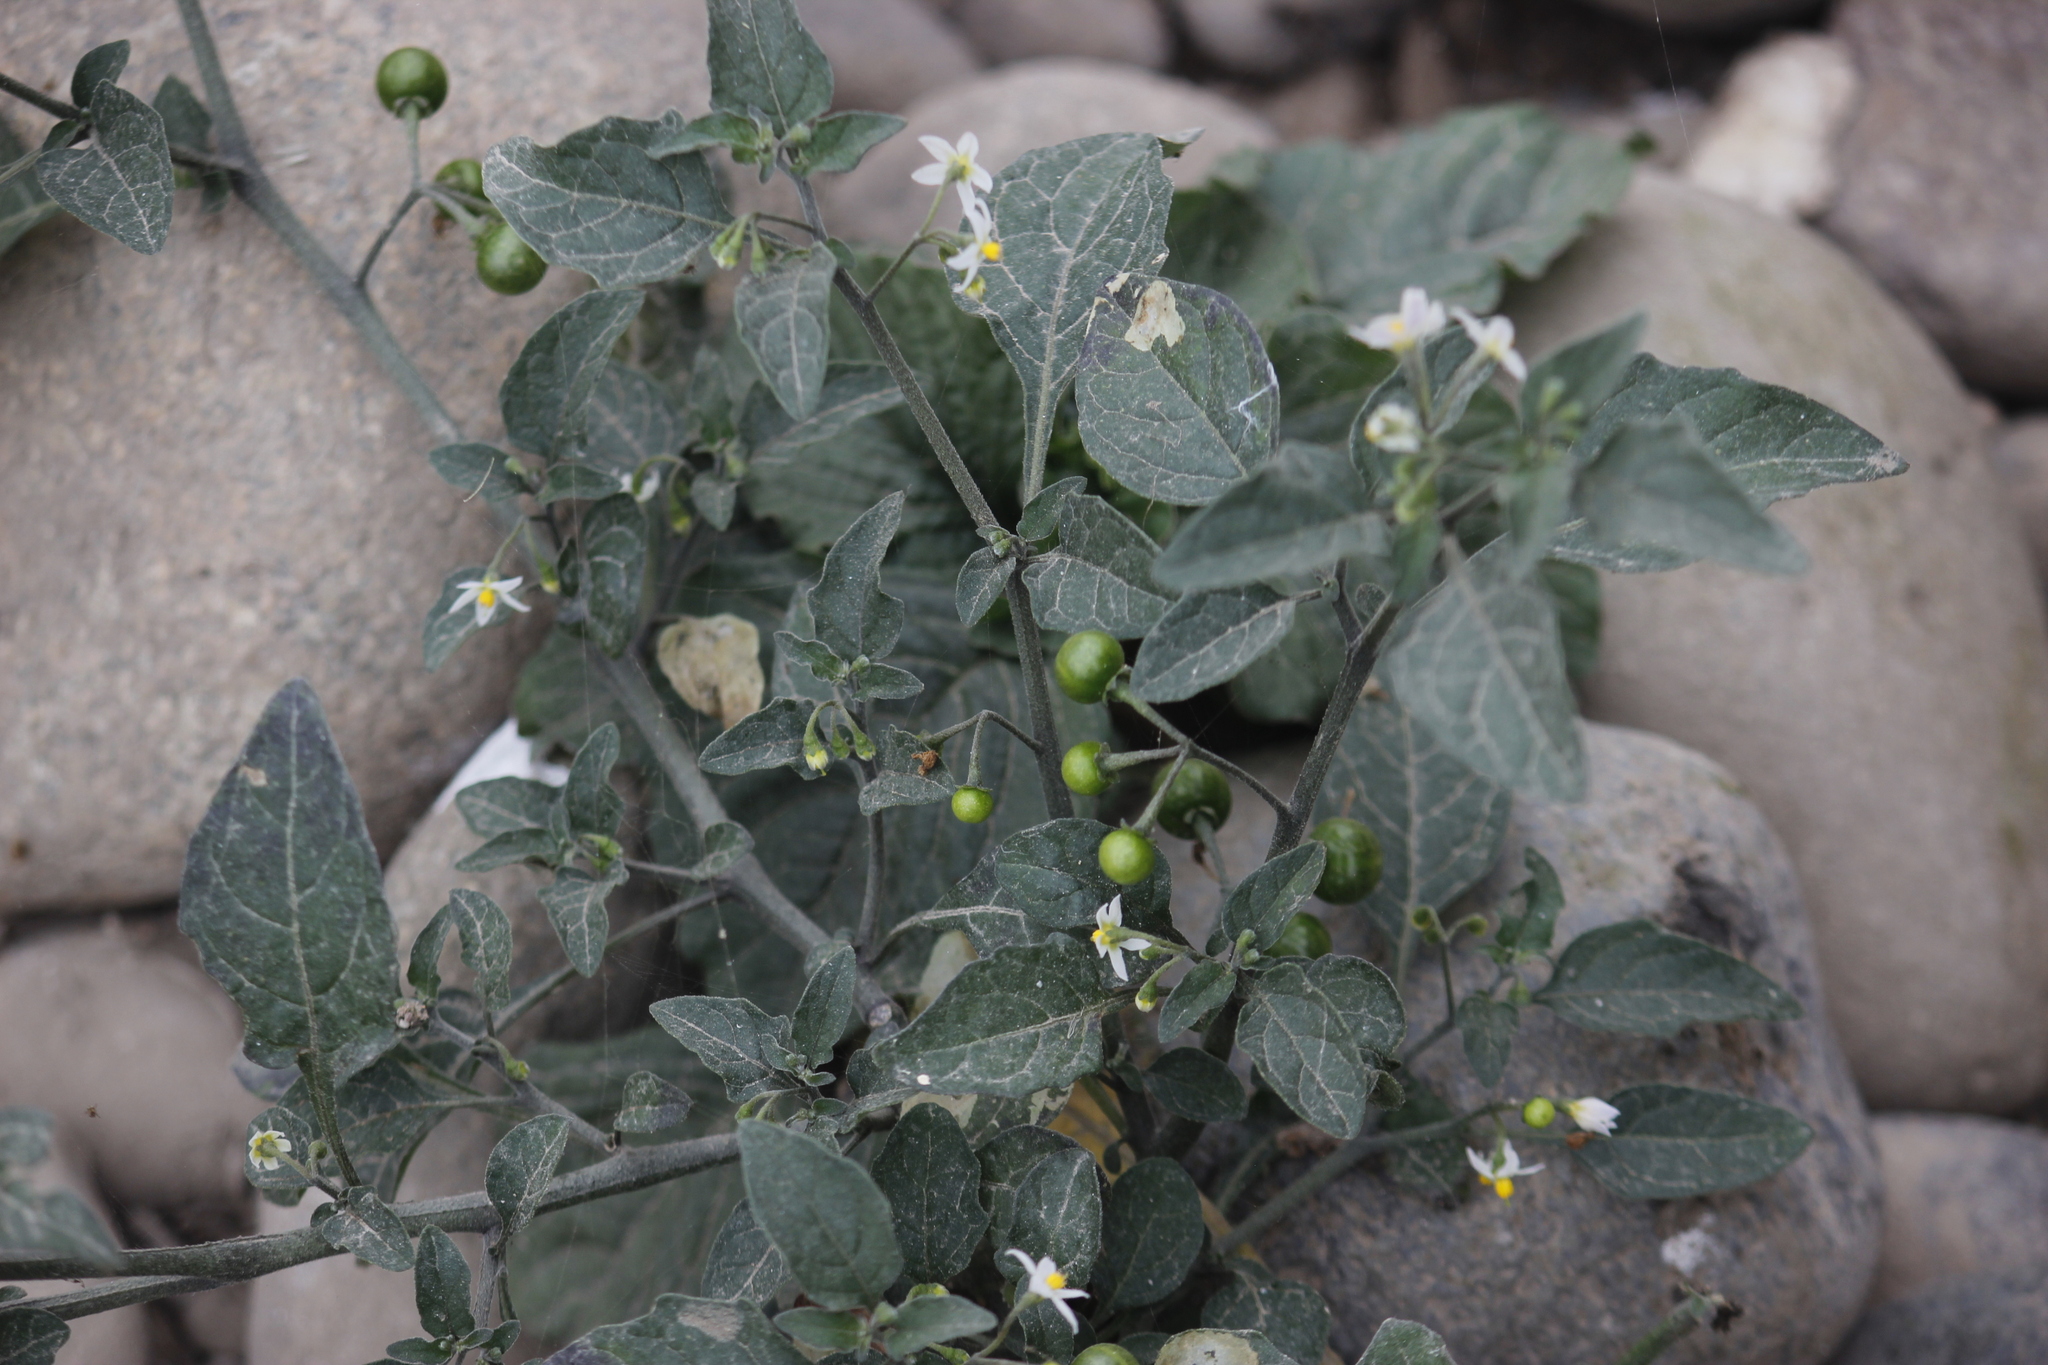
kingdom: Plantae
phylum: Tracheophyta
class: Magnoliopsida
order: Solanales
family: Solanaceae
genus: Solanum
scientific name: Solanum americanum
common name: American black nightshade
